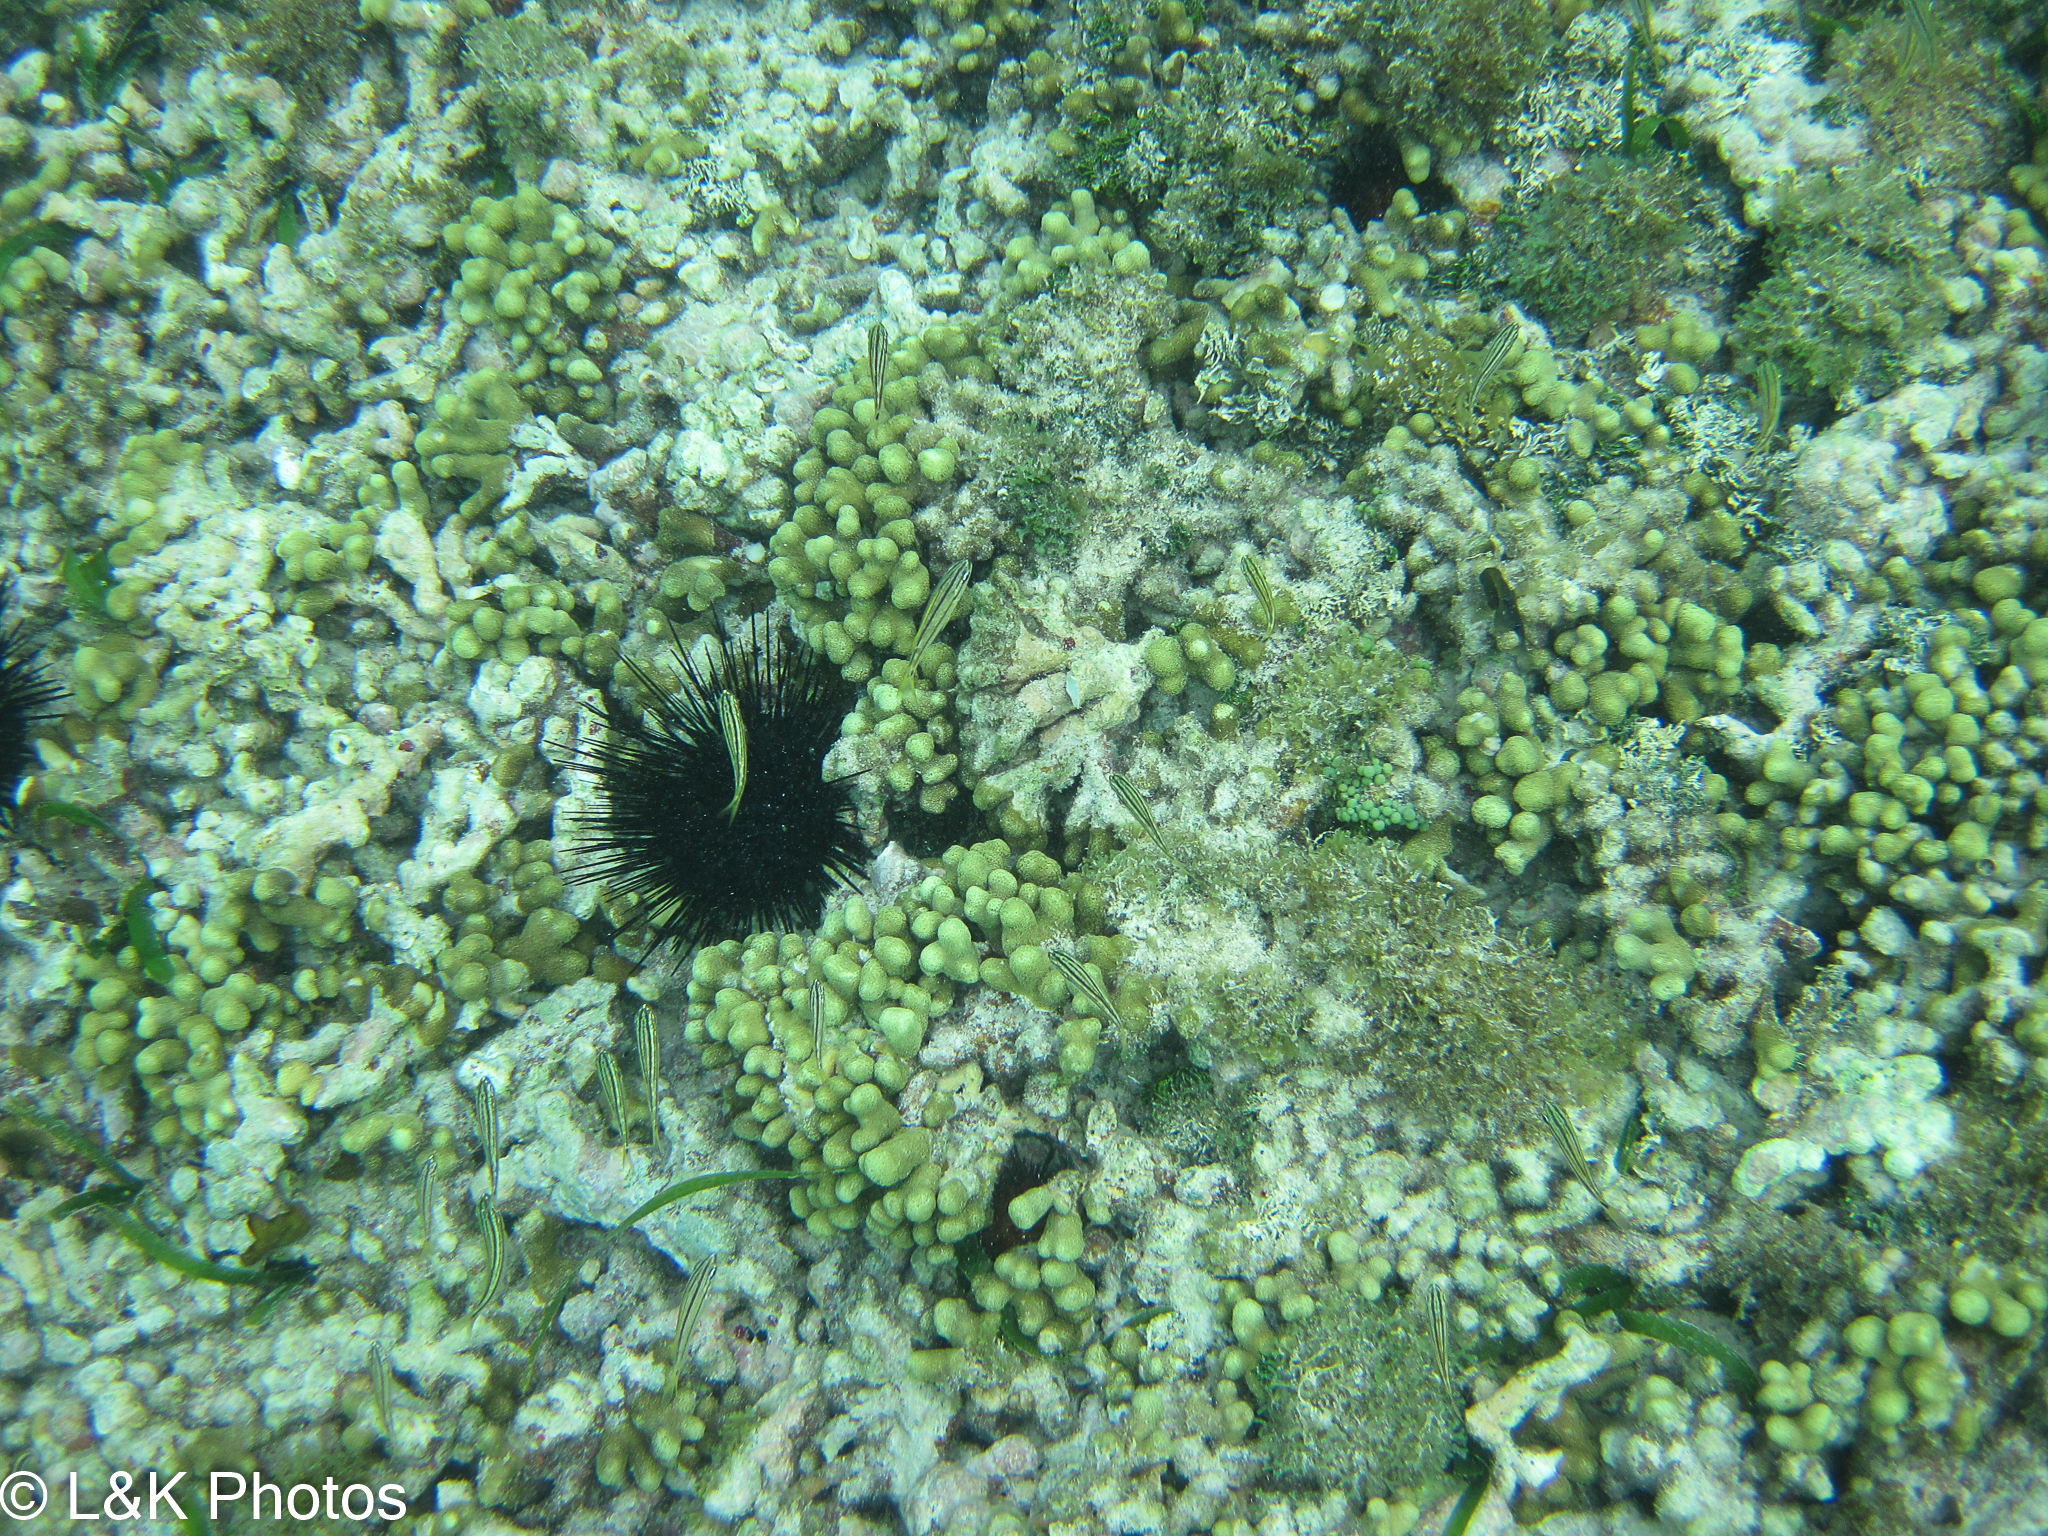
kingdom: Animalia
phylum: Echinodermata
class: Echinoidea
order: Diadematoida
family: Diadematidae
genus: Diadema
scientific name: Diadema antillarum
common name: Spiny urchin
